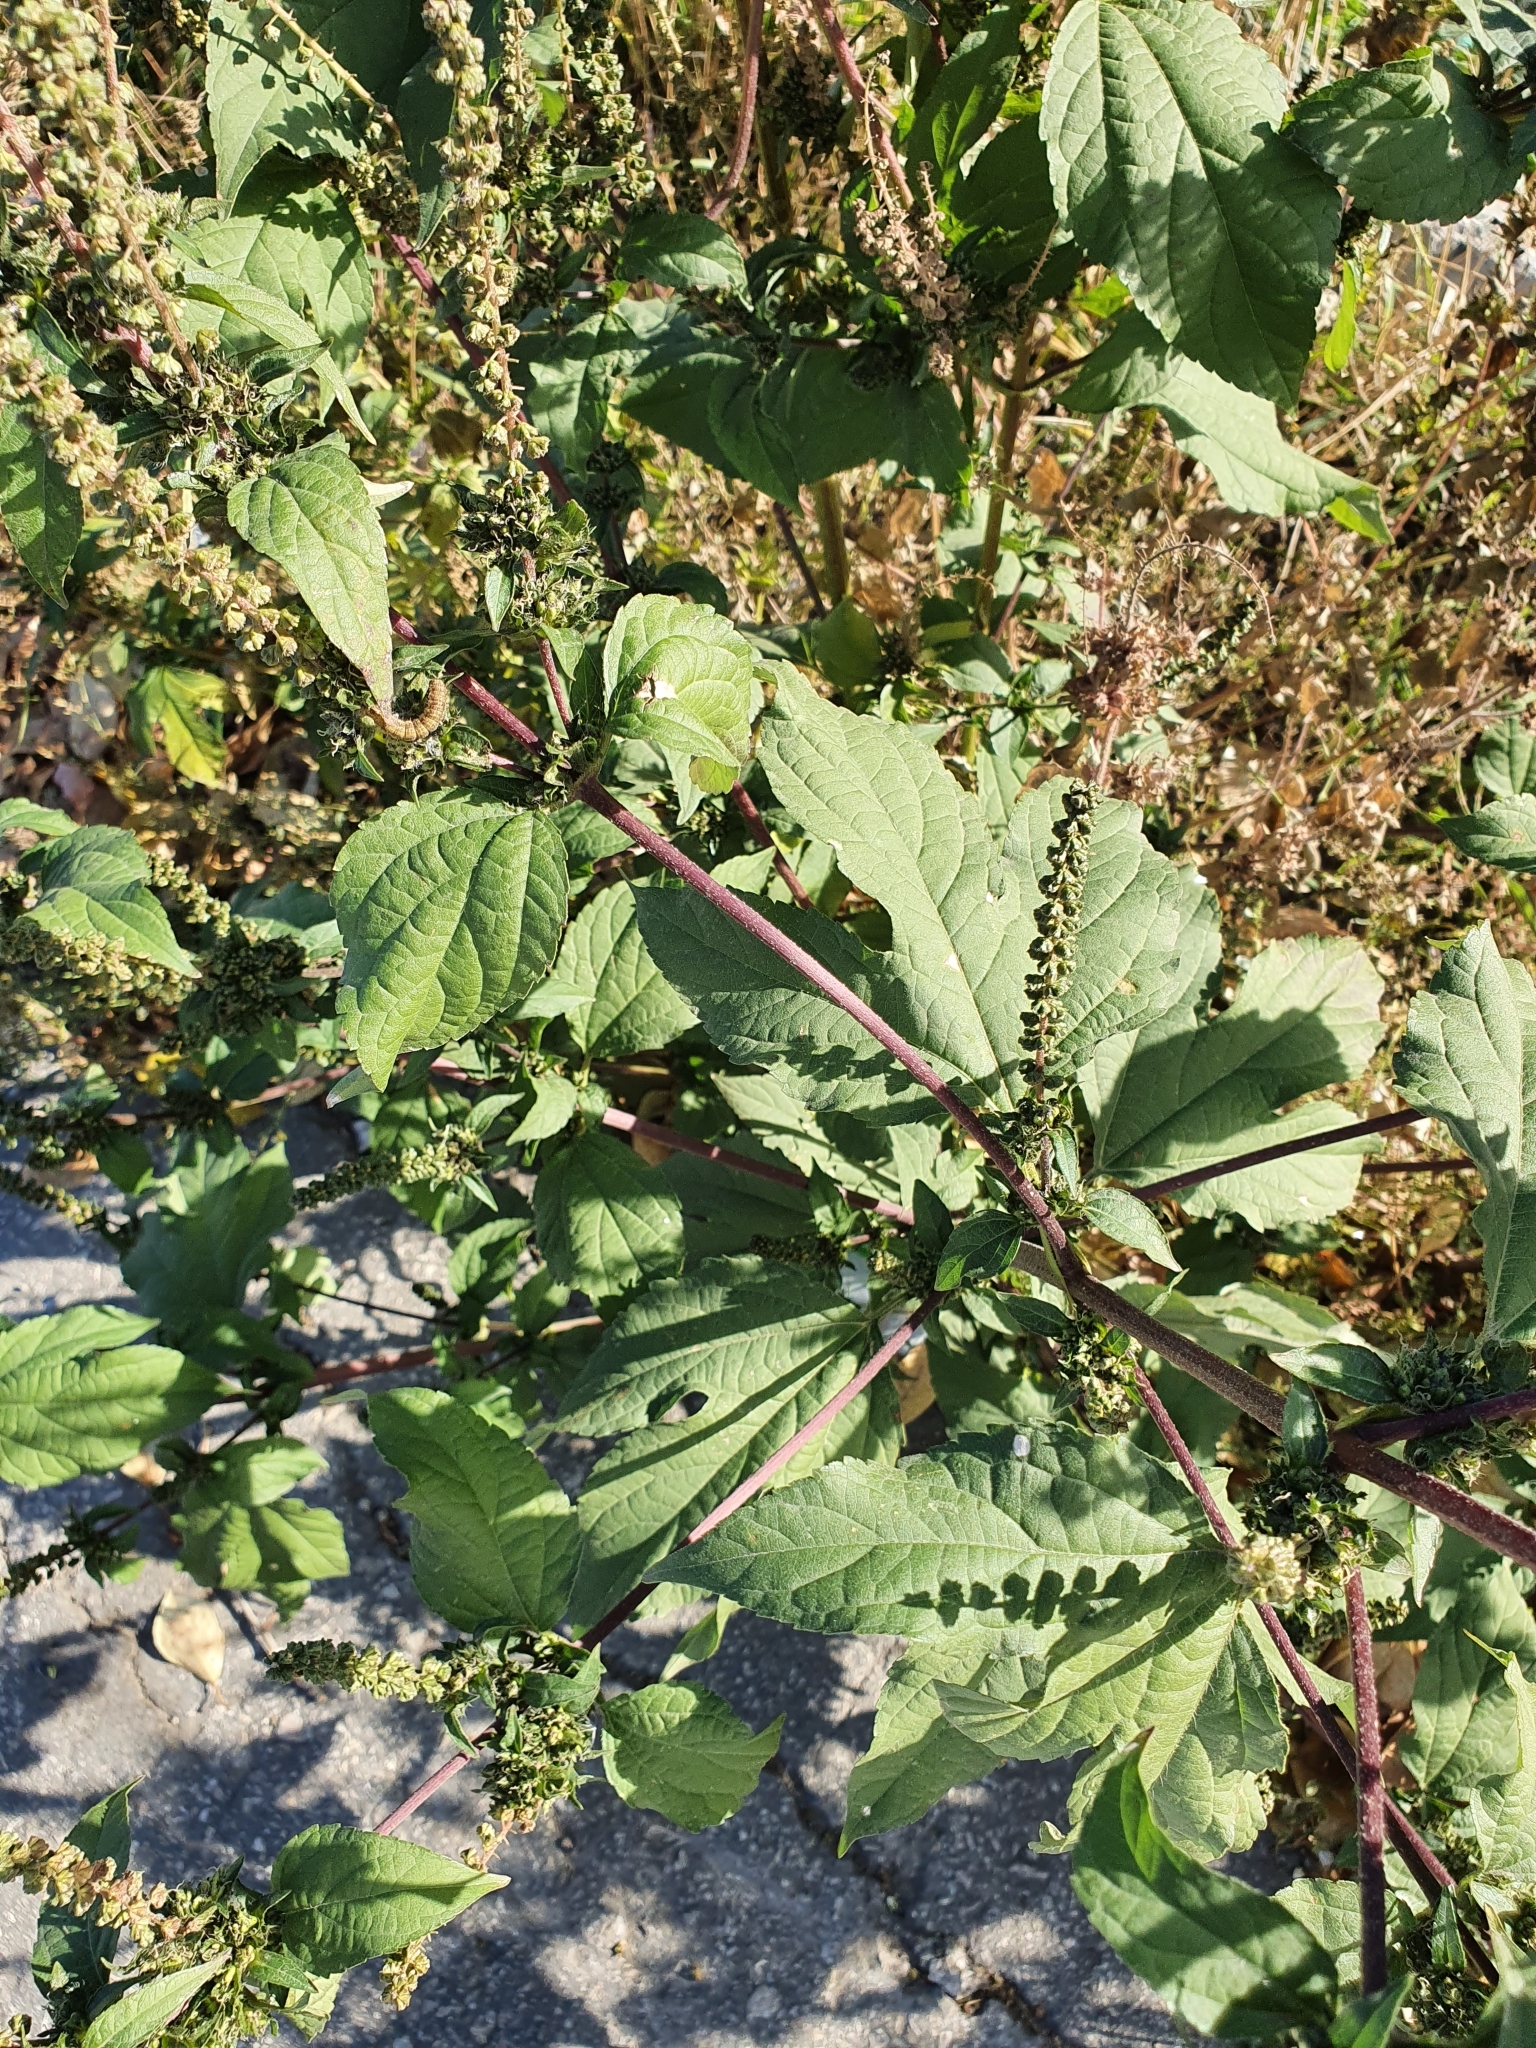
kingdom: Plantae
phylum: Tracheophyta
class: Magnoliopsida
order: Asterales
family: Asteraceae
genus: Ambrosia
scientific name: Ambrosia trifida
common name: Giant ragweed
